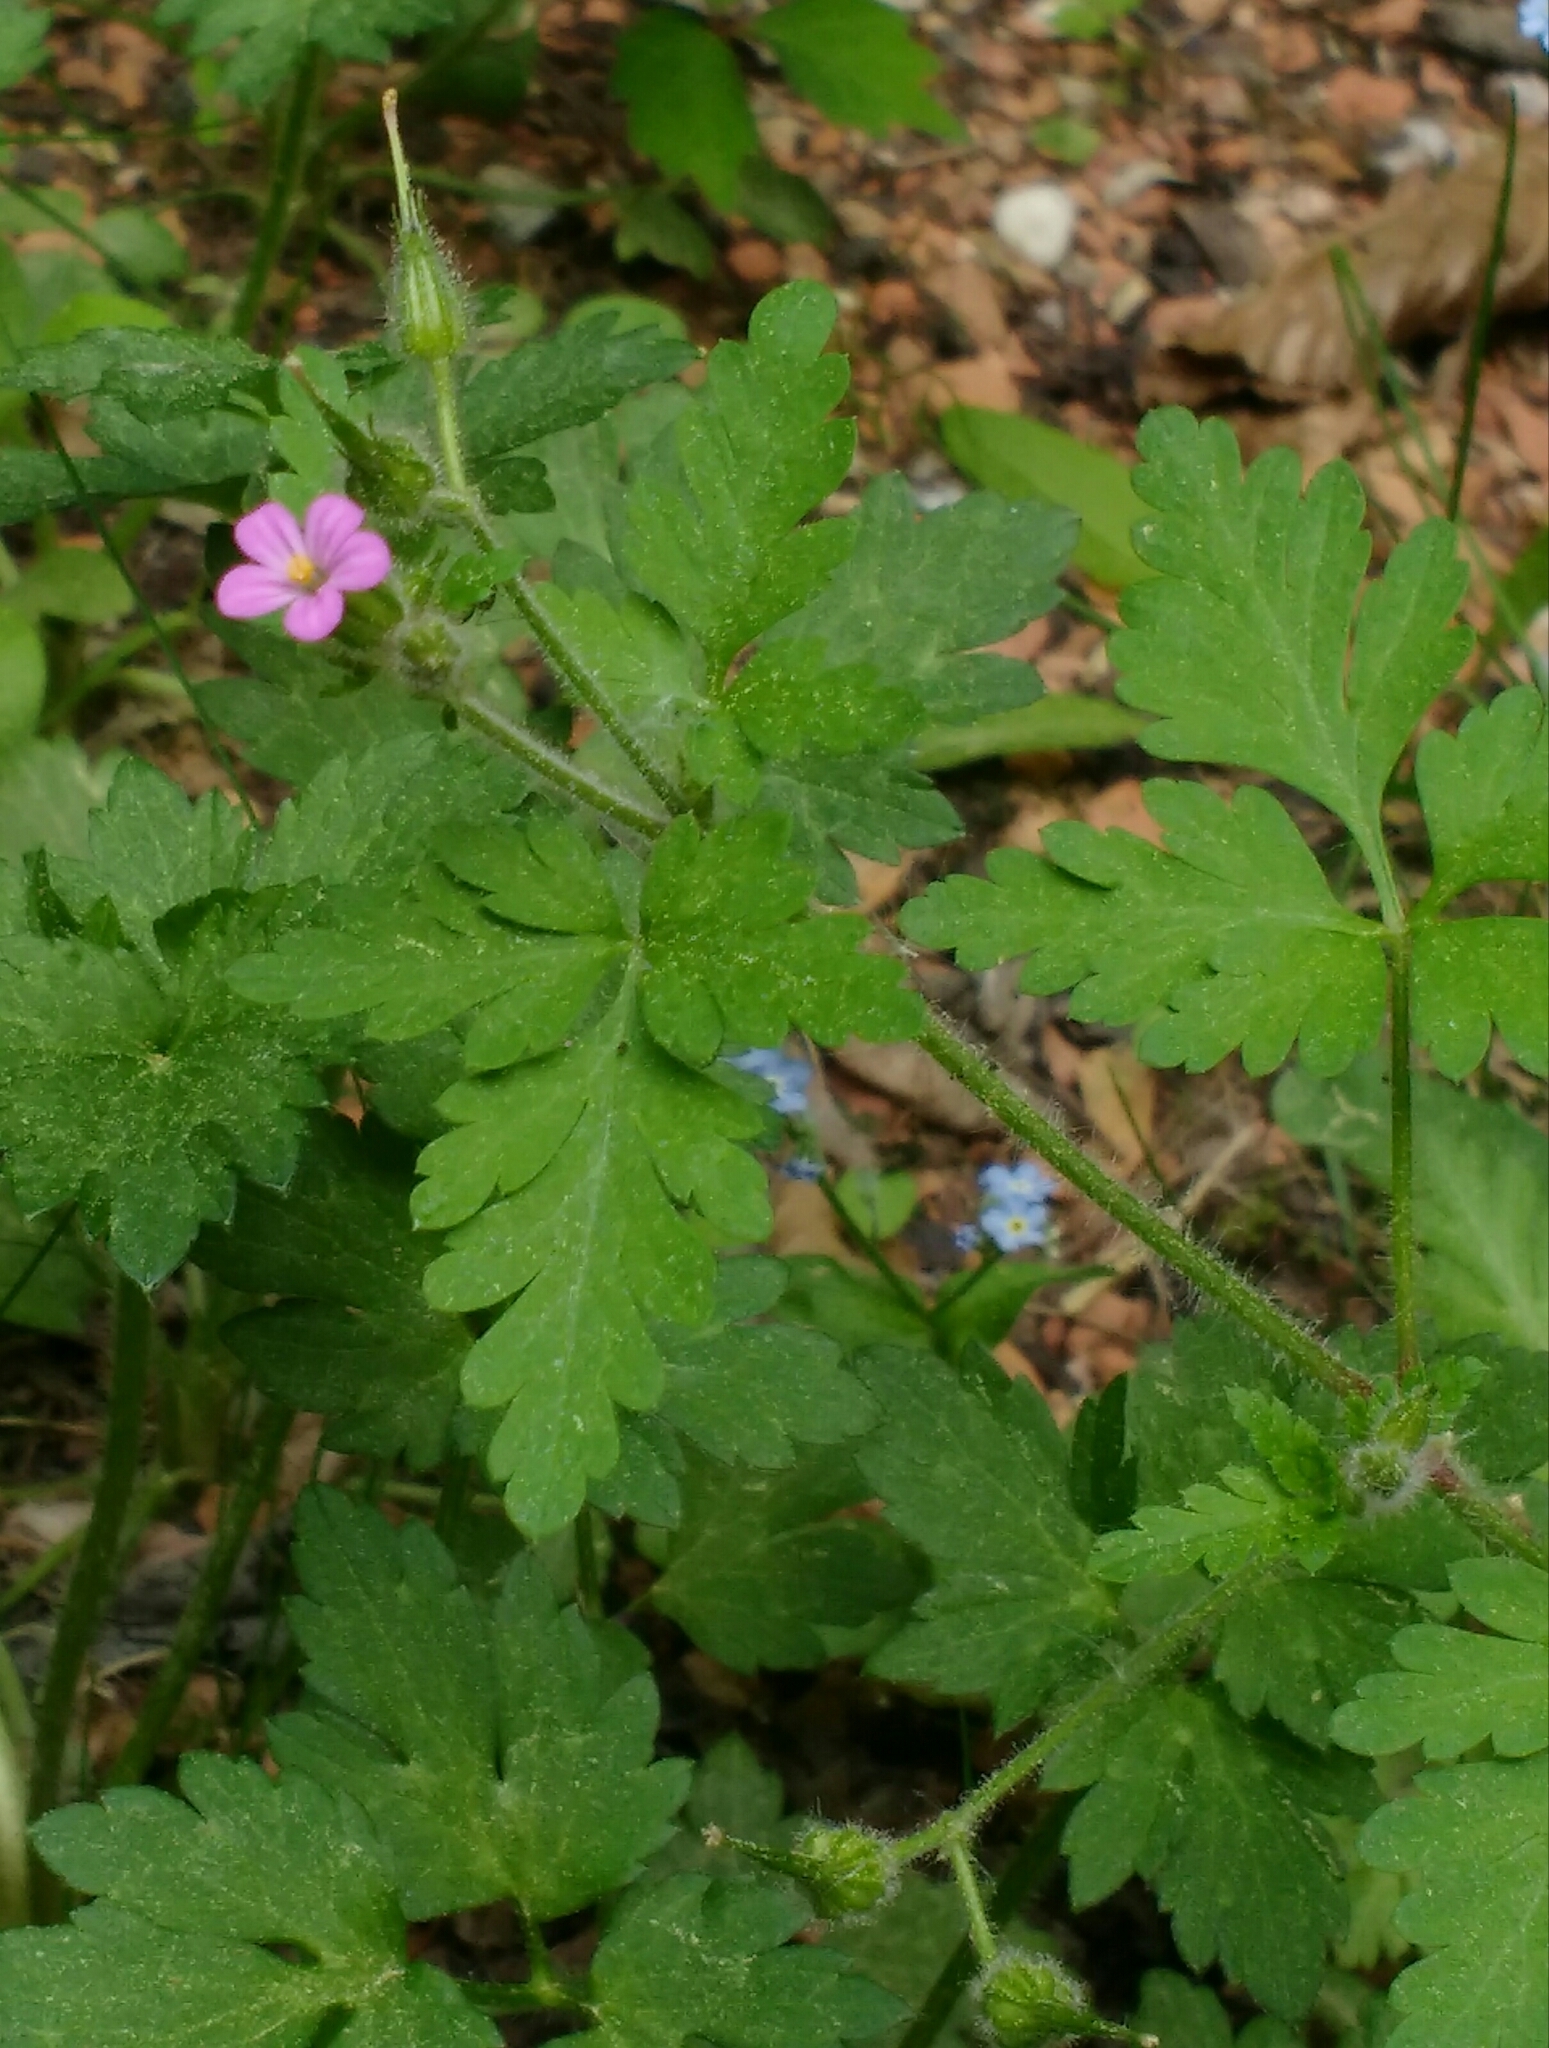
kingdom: Plantae
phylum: Tracheophyta
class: Magnoliopsida
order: Geraniales
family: Geraniaceae
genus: Geranium
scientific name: Geranium purpureum
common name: Little-robin
